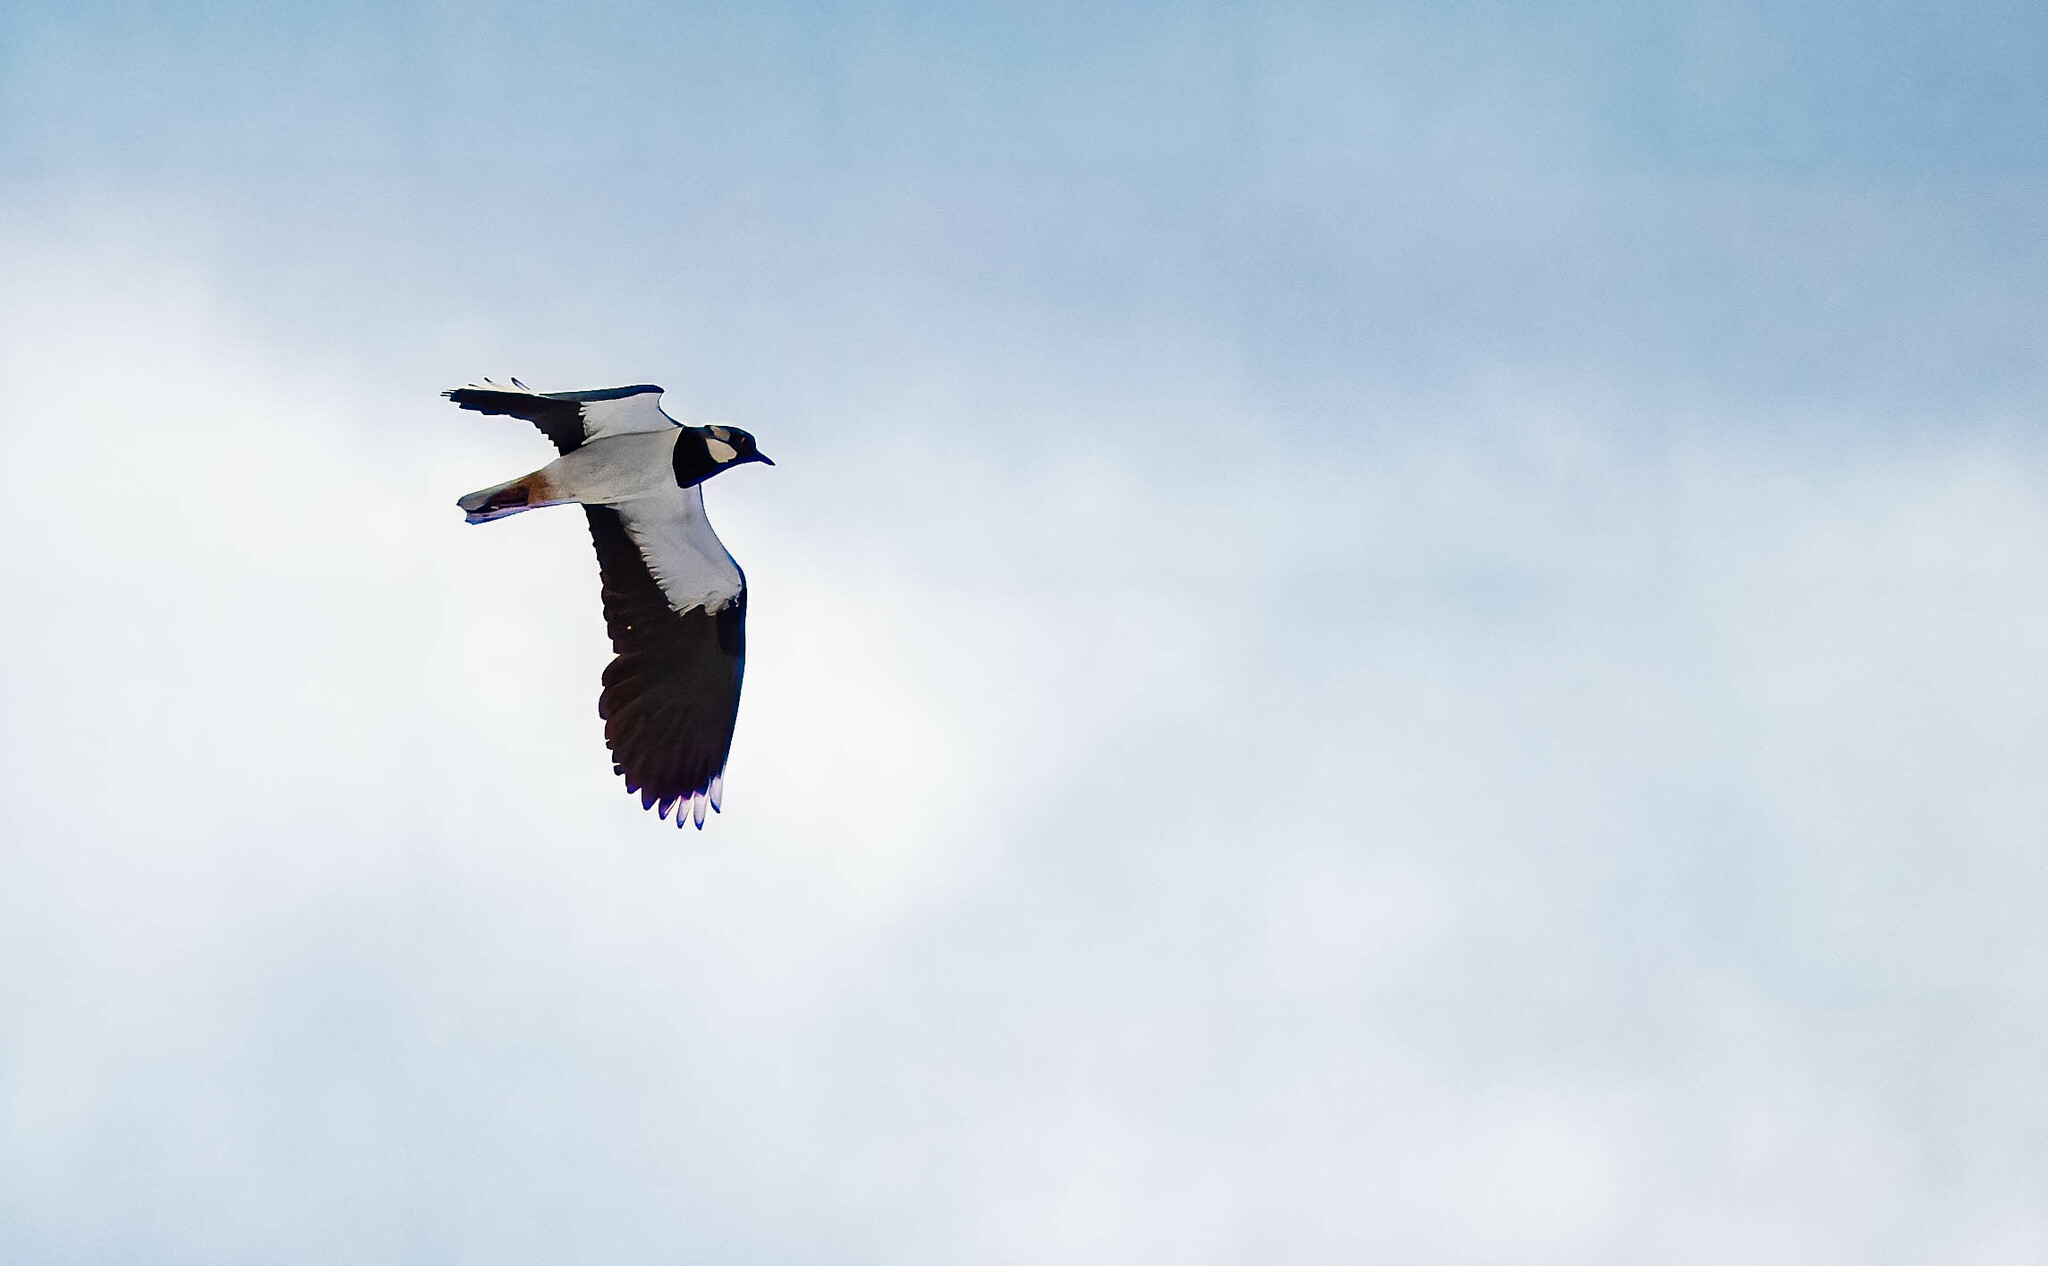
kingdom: Animalia
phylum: Chordata
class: Aves
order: Charadriiformes
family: Charadriidae
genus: Vanellus
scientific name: Vanellus vanellus
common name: Northern lapwing
